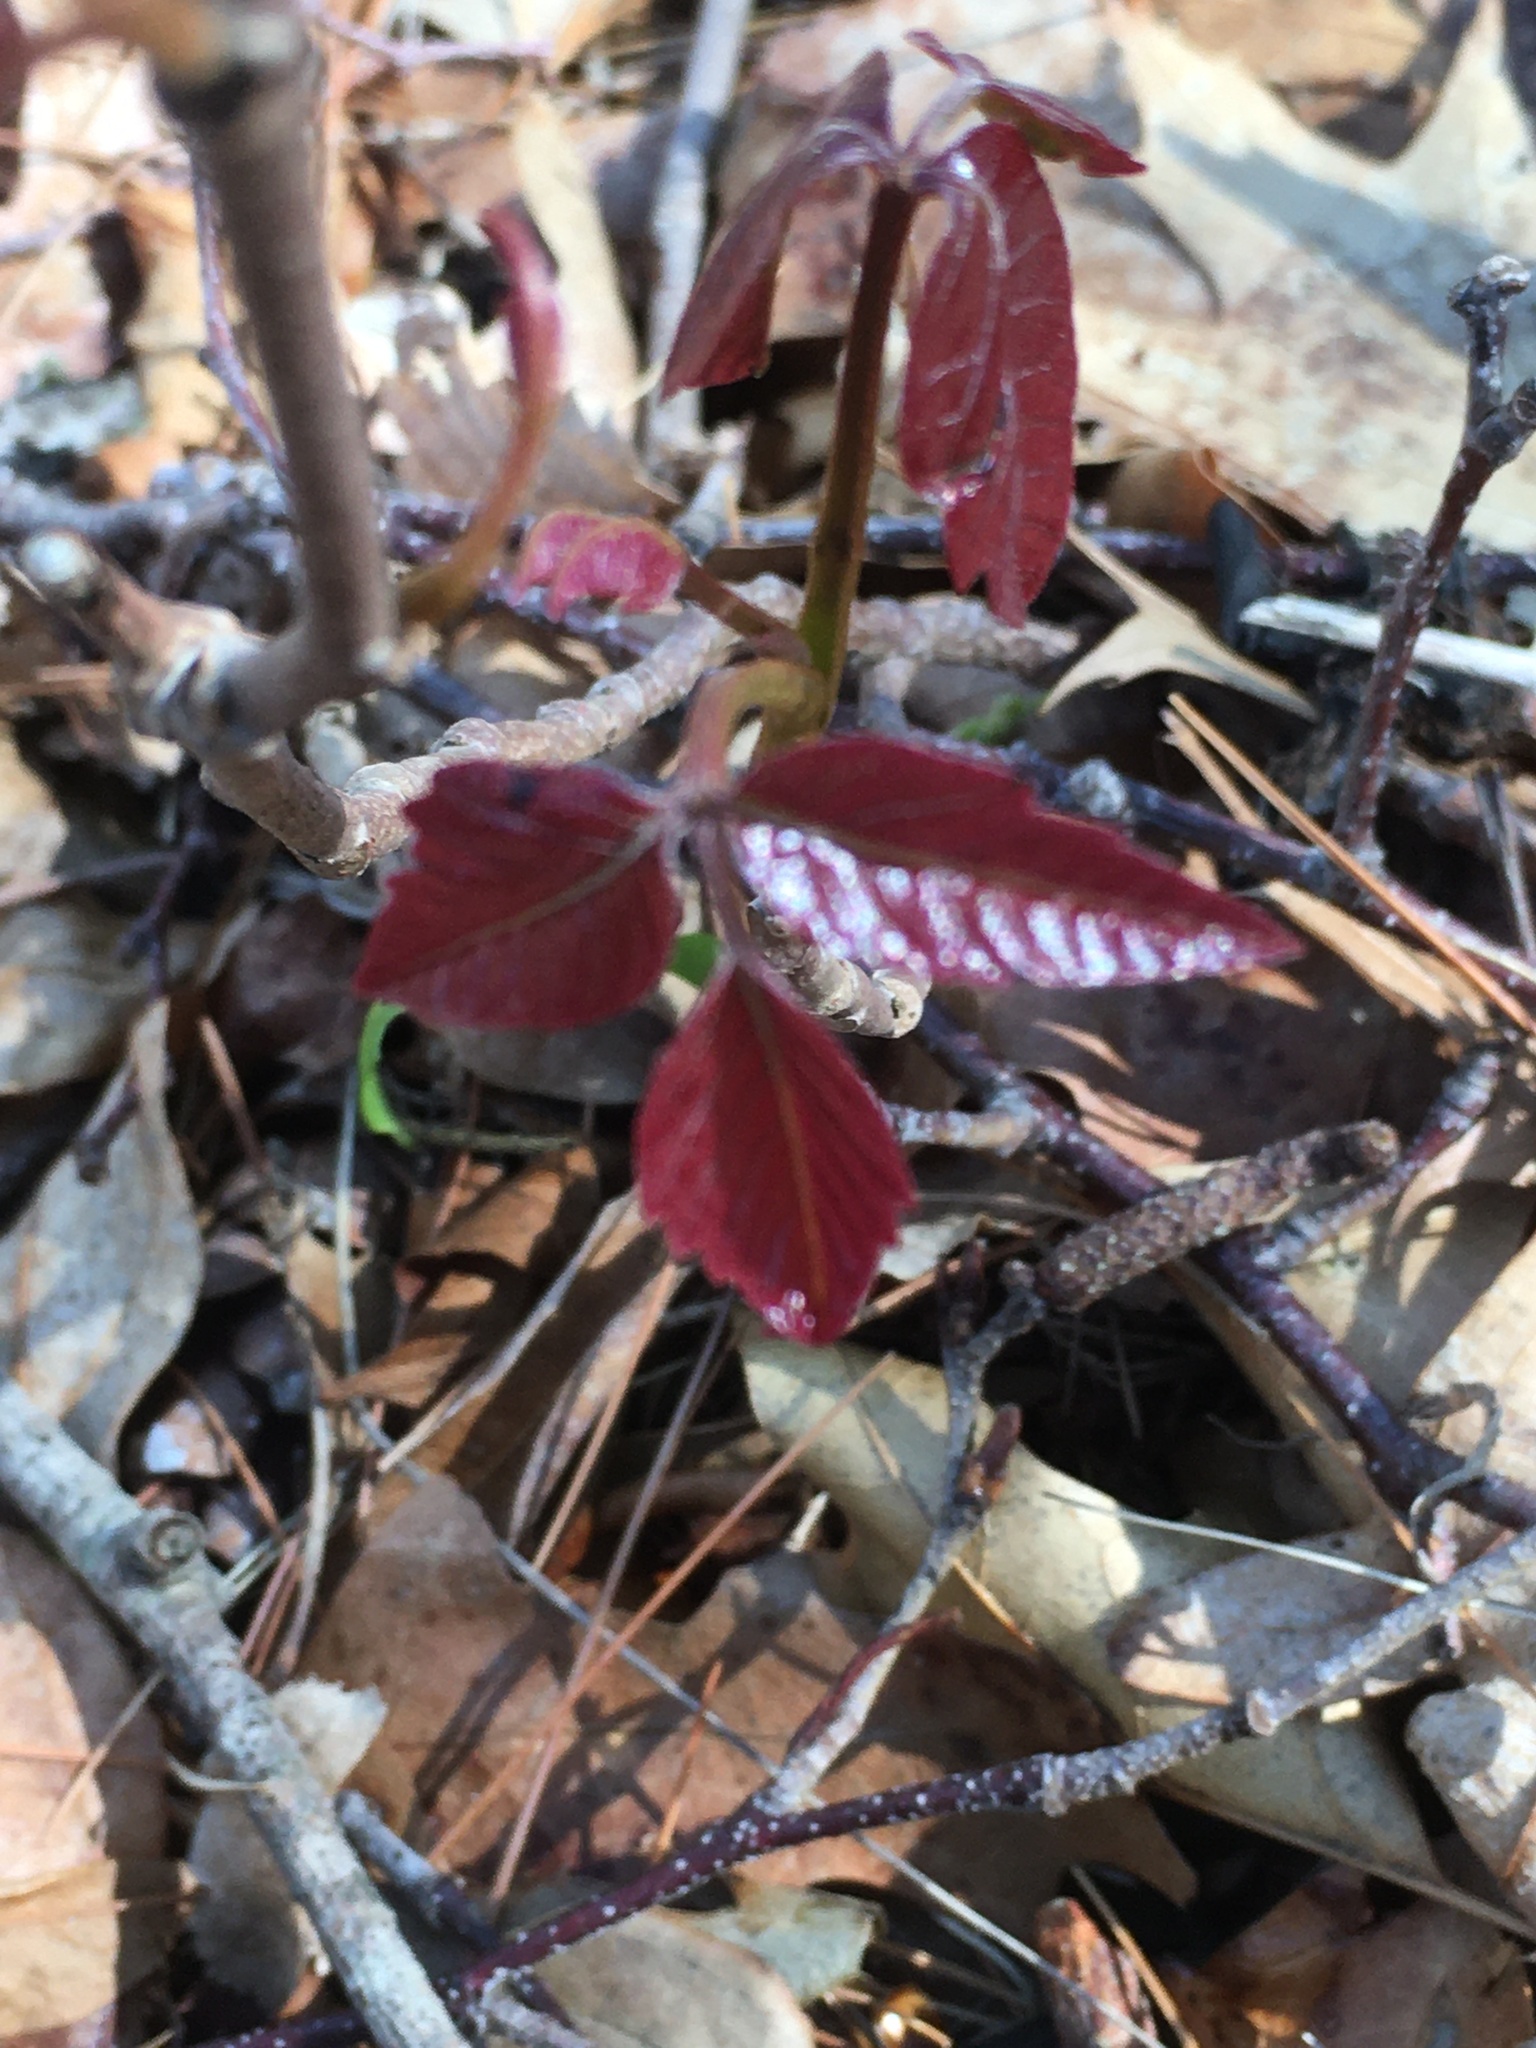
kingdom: Plantae
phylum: Tracheophyta
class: Magnoliopsida
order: Sapindales
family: Anacardiaceae
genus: Toxicodendron
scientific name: Toxicodendron radicans
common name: Poison ivy
